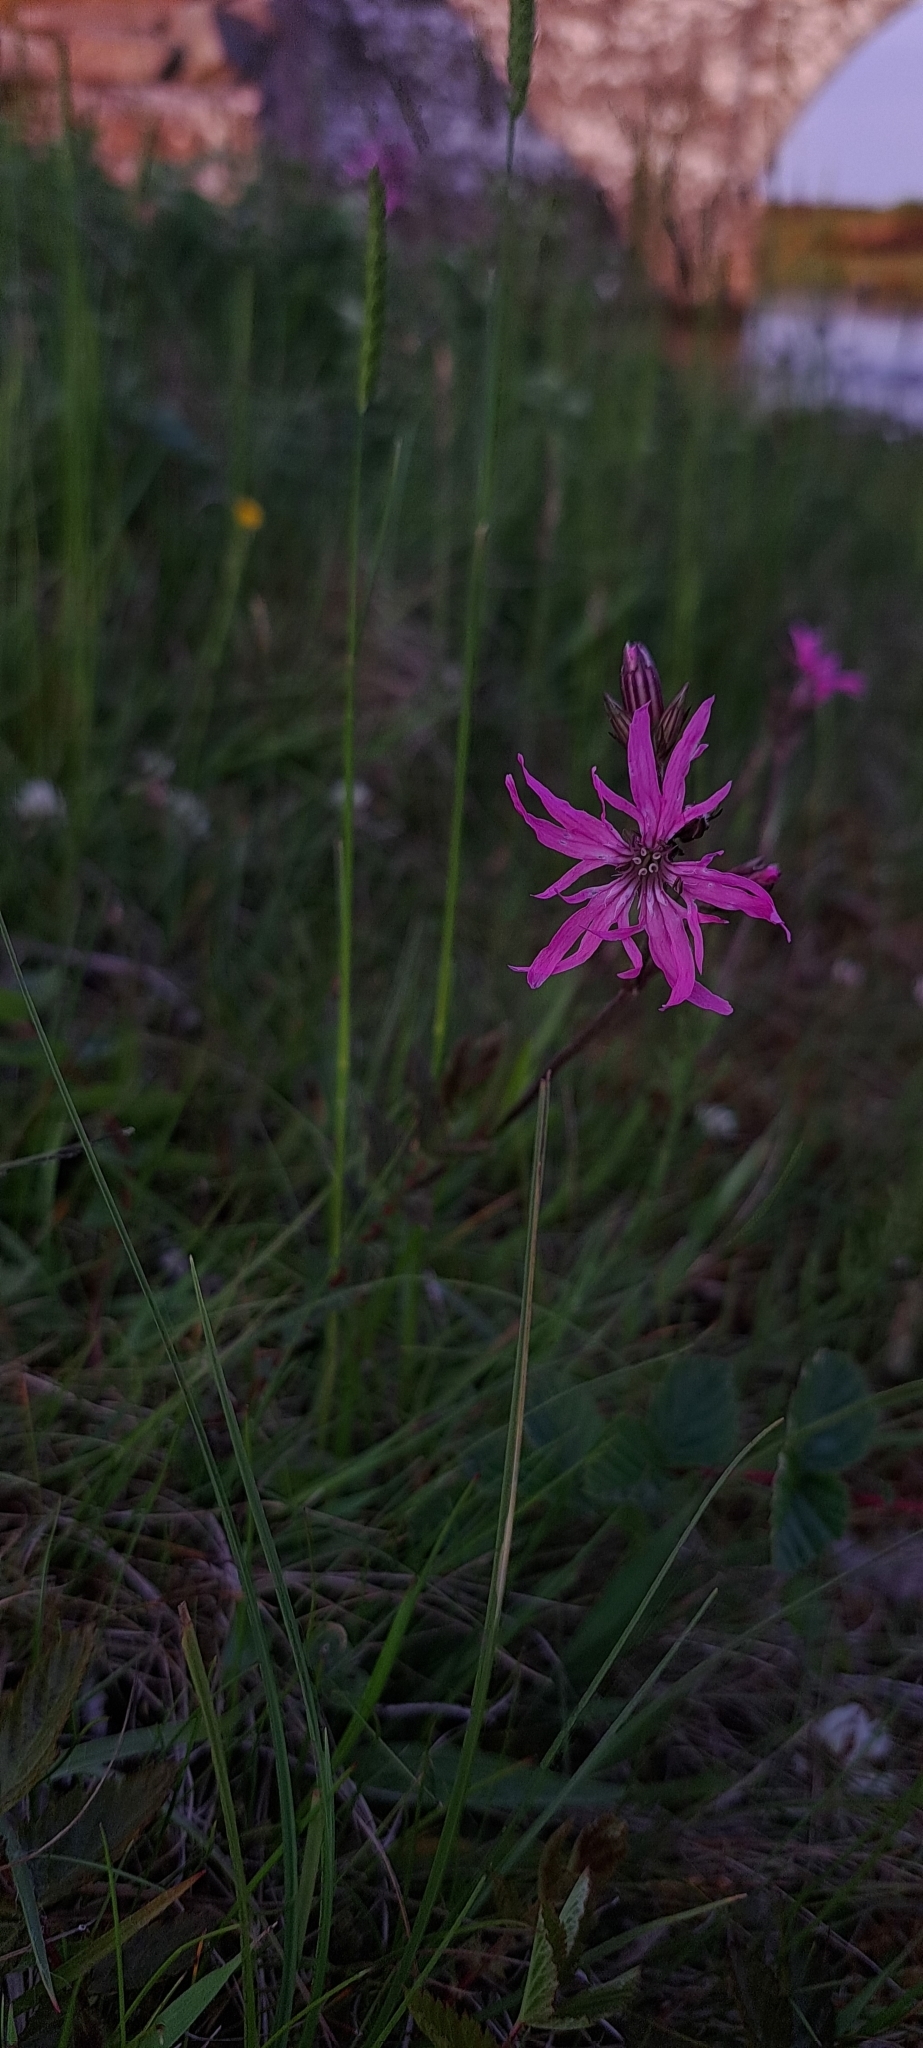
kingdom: Plantae
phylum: Tracheophyta
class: Magnoliopsida
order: Caryophyllales
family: Caryophyllaceae
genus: Silene
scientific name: Silene flos-cuculi
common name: Ragged-robin
